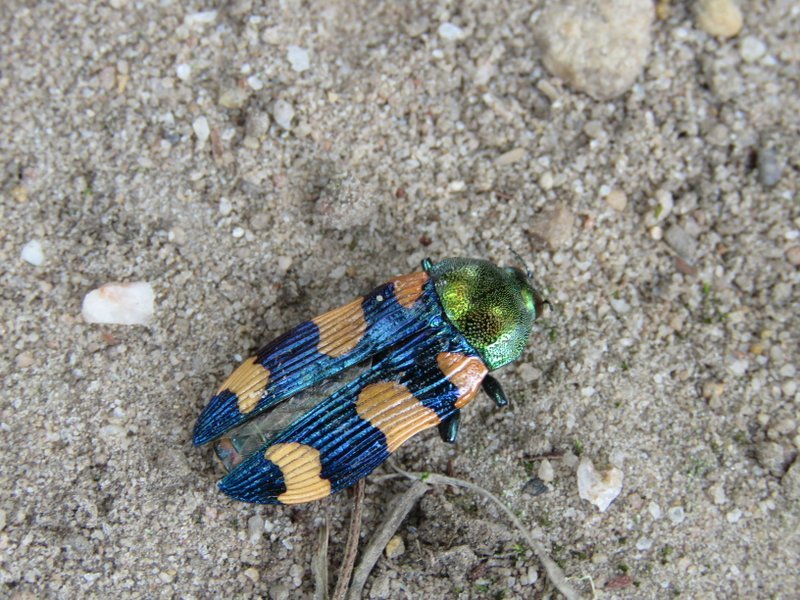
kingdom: Animalia
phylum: Arthropoda
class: Insecta
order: Coleoptera
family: Buprestidae
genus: Castiarina
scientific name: Castiarina deyrollei
